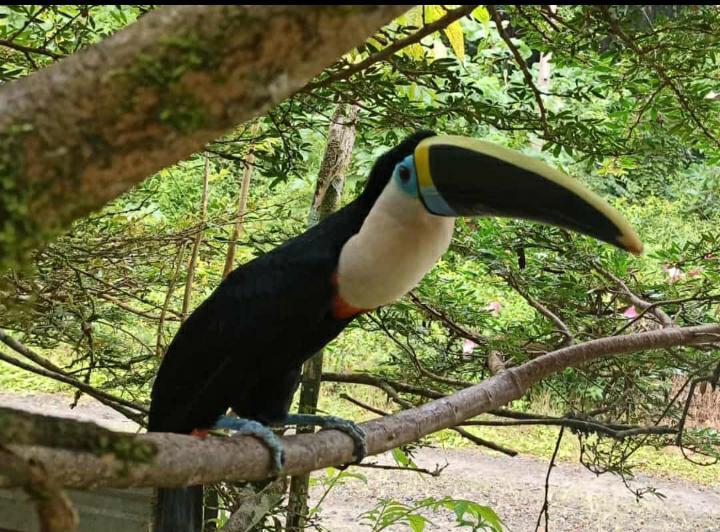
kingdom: Animalia
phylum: Chordata
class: Aves
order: Piciformes
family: Ramphastidae
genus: Ramphastos
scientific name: Ramphastos tucanus
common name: White-throated toucan
